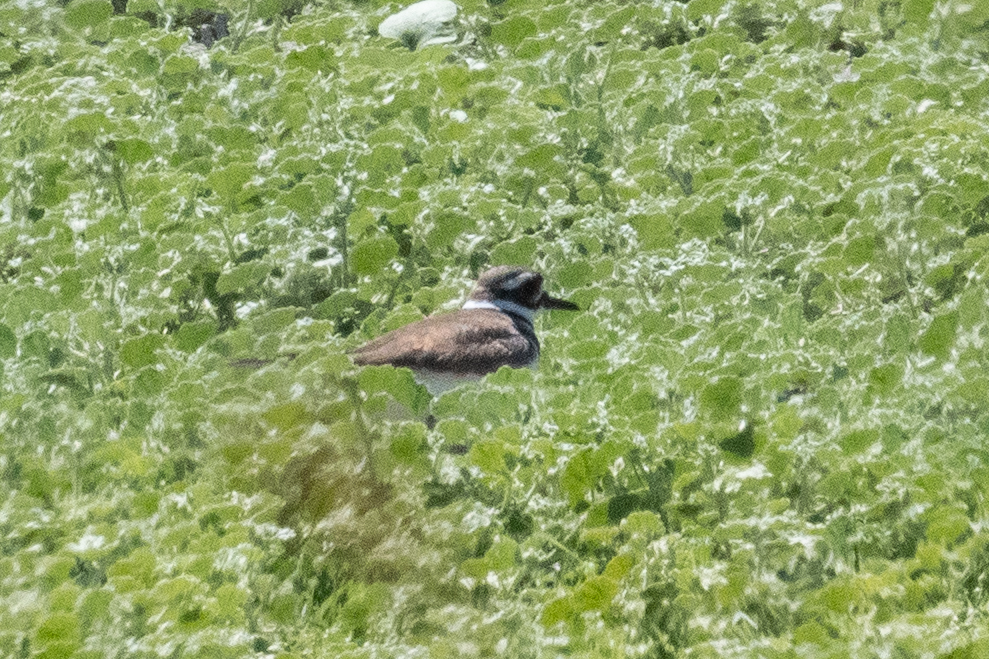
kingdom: Animalia
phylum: Chordata
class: Aves
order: Charadriiformes
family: Charadriidae
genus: Charadrius
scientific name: Charadrius vociferus
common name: Killdeer
